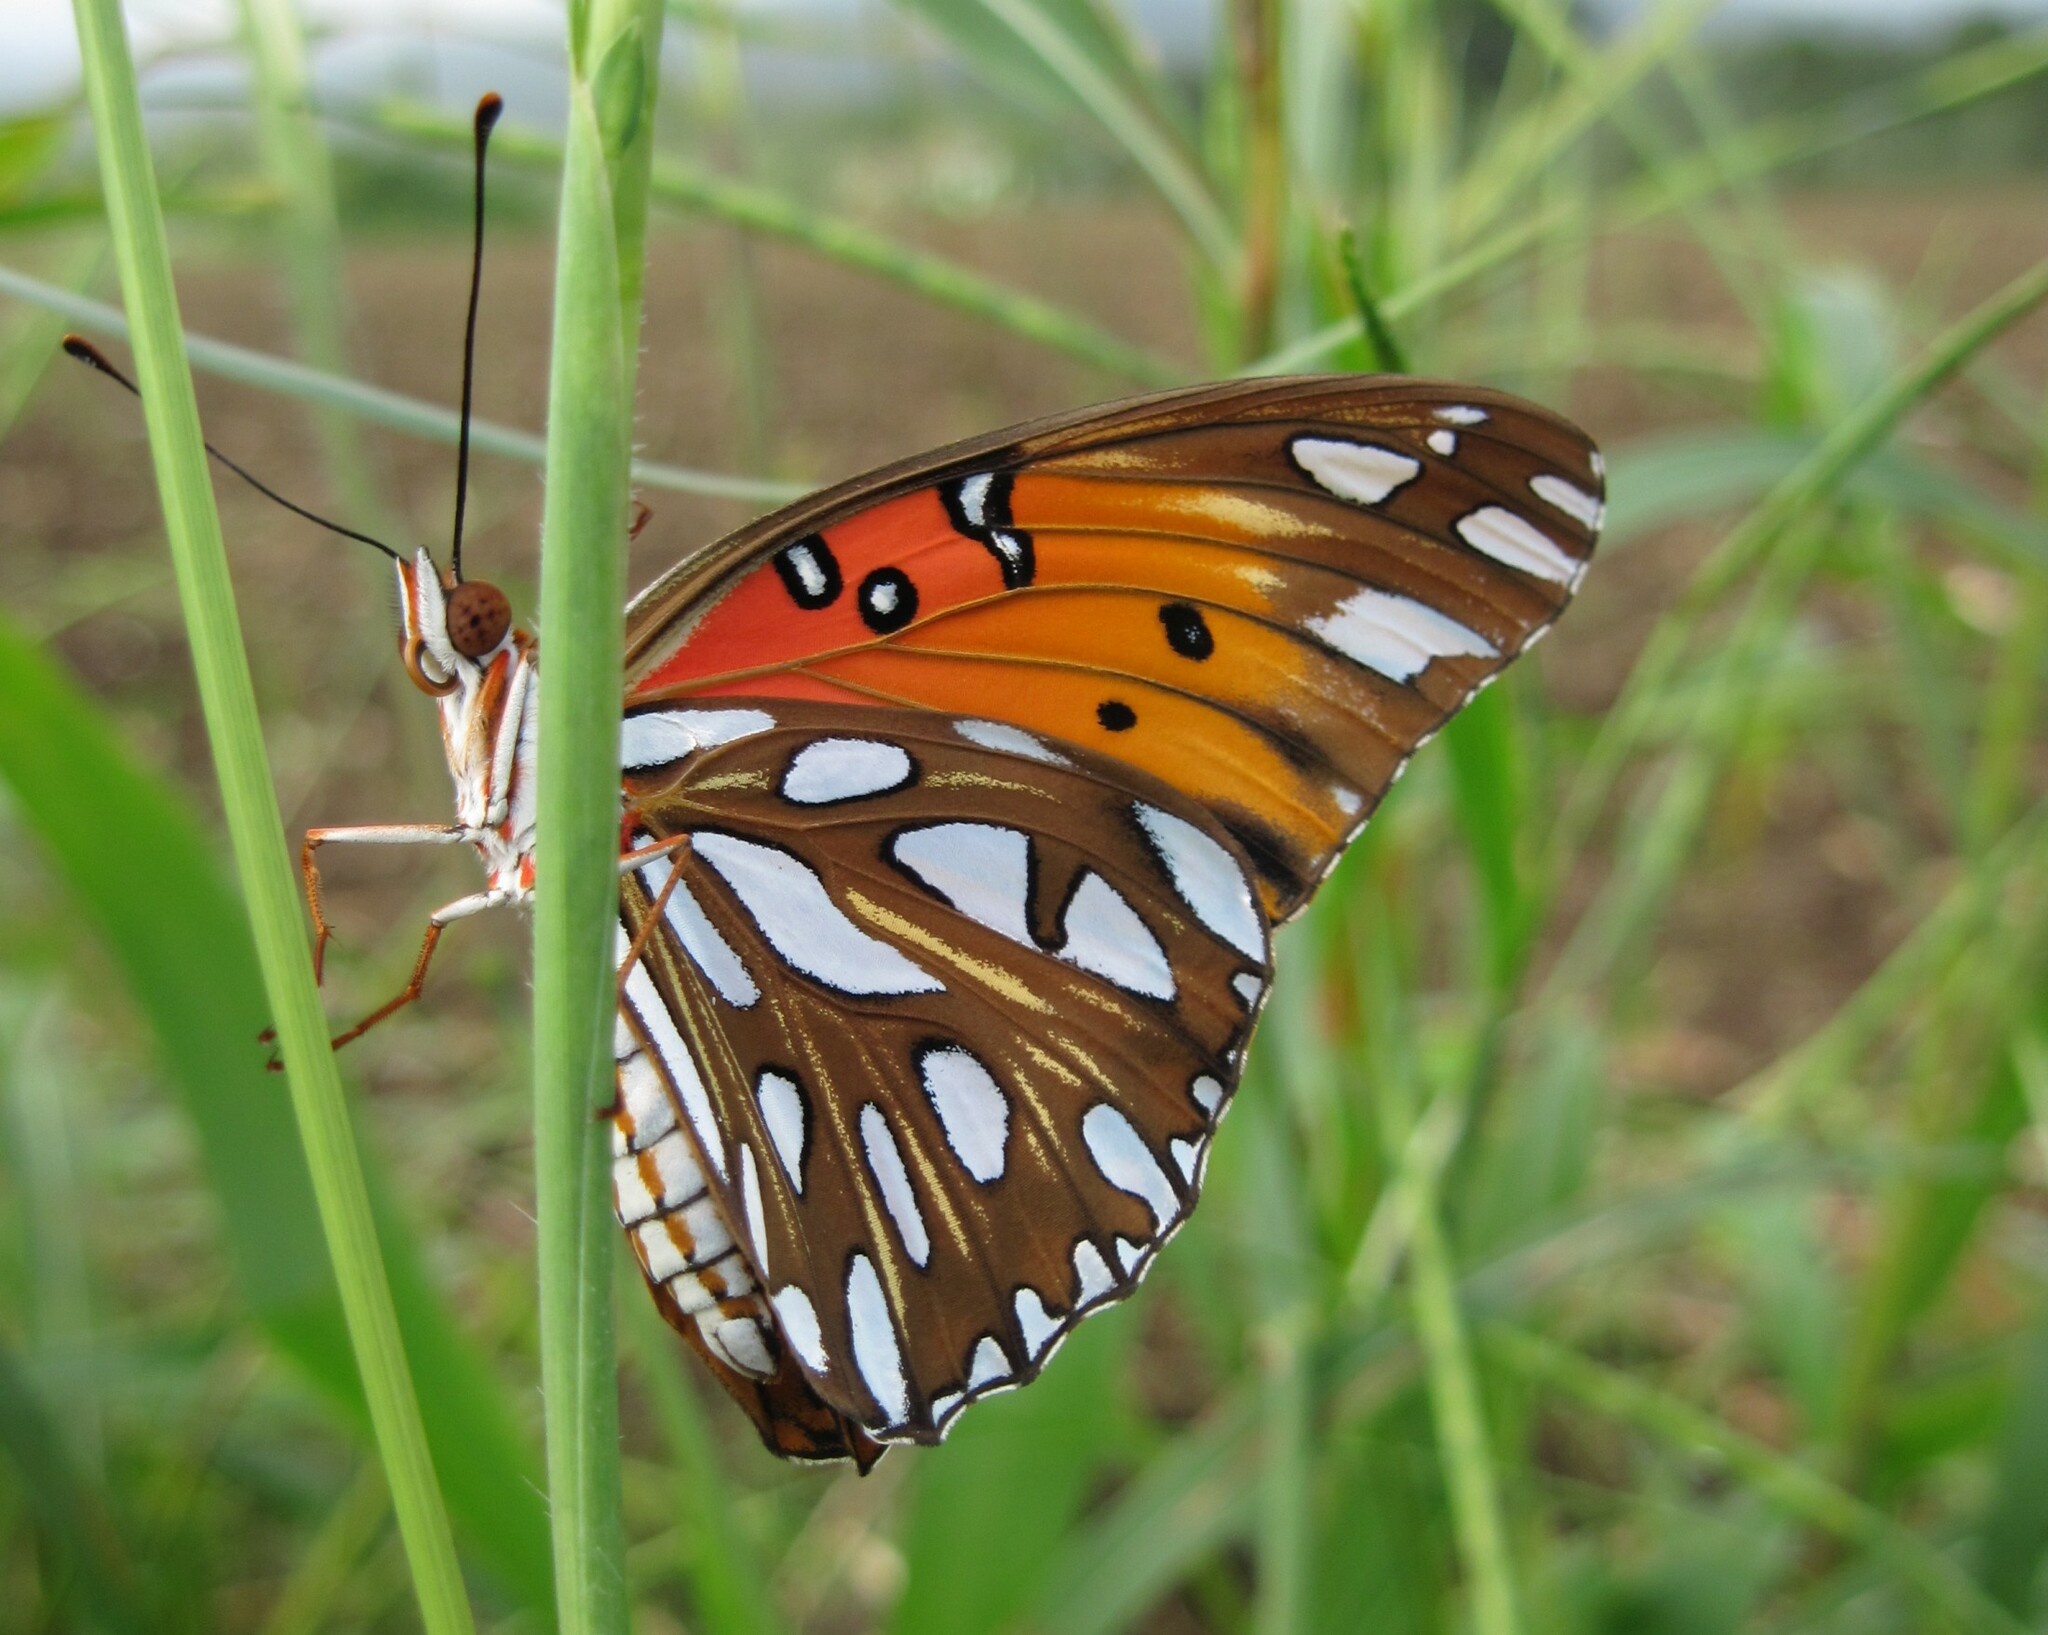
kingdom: Animalia
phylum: Arthropoda
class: Insecta
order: Lepidoptera
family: Nymphalidae
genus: Dione
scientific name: Dione vanillae
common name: Gulf fritillary
